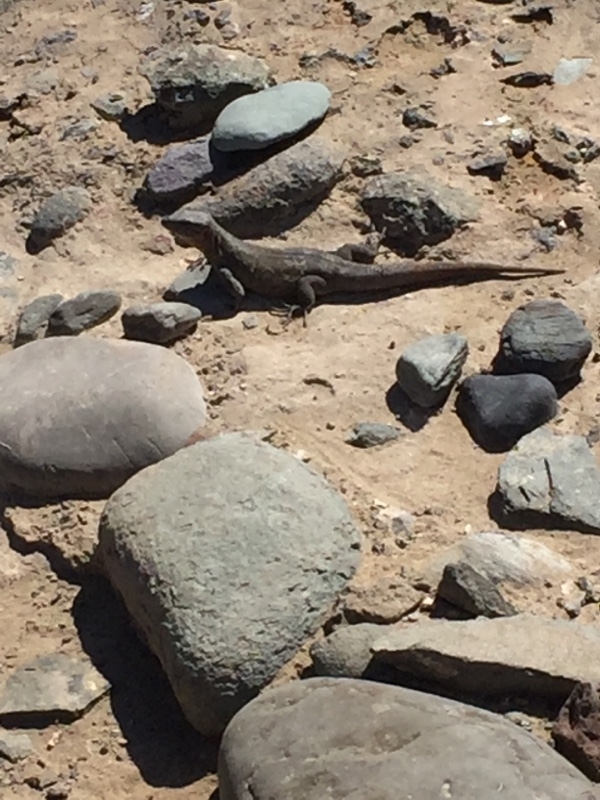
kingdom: Animalia
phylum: Chordata
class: Squamata
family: Lacertidae
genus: Gallotia
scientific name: Gallotia stehlini
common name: Gran canaria giant lizard
